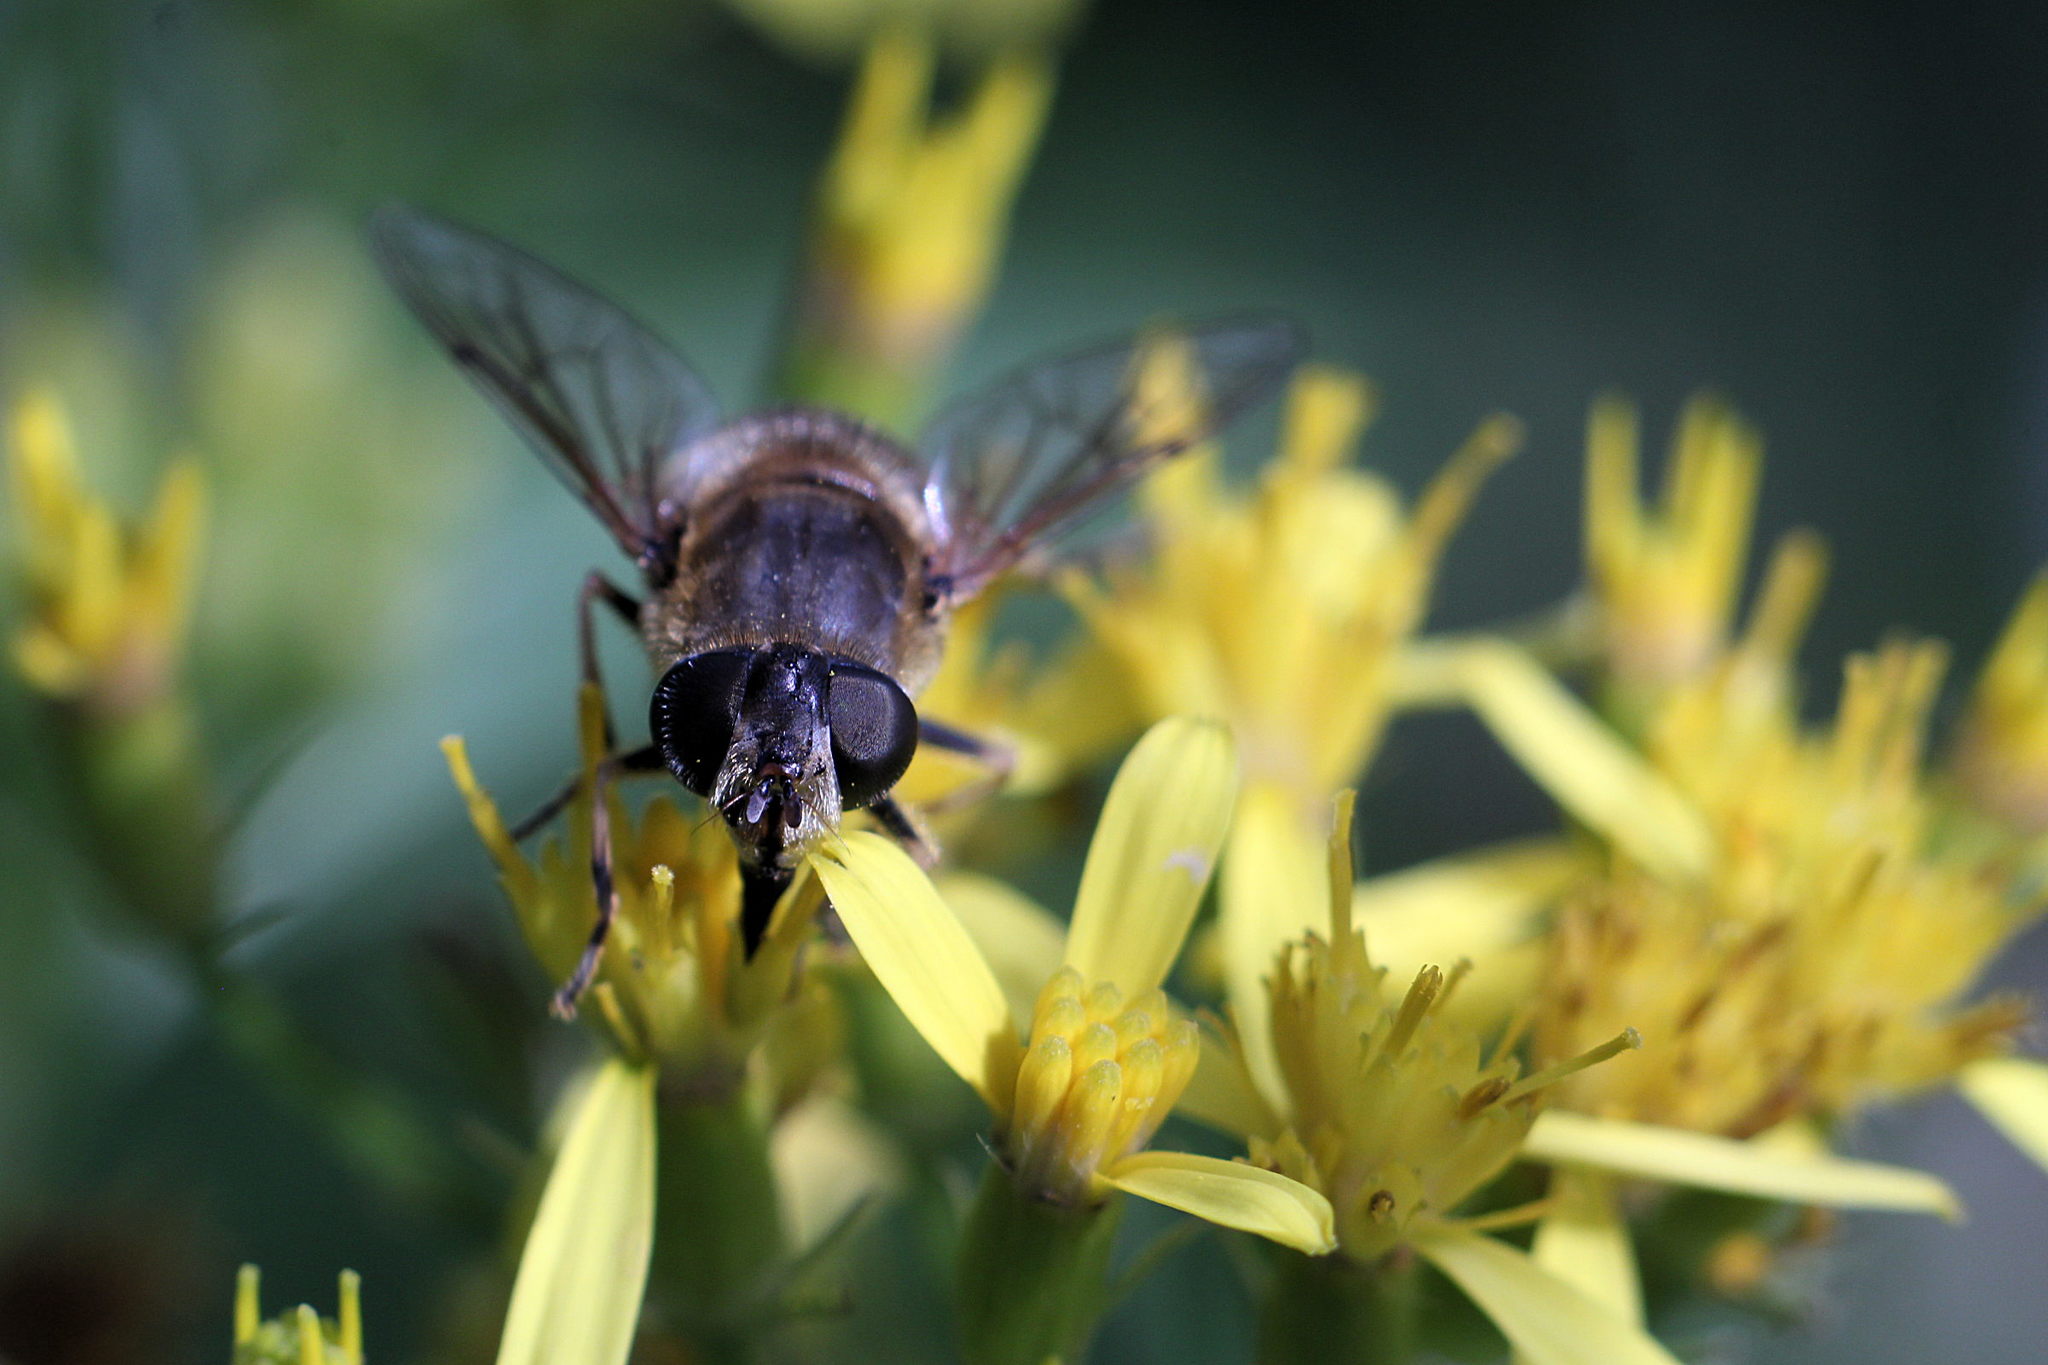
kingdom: Animalia
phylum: Arthropoda
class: Insecta
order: Diptera
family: Syrphidae
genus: Eristalis
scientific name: Eristalis nemorum
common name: Orange-spined drone fly
